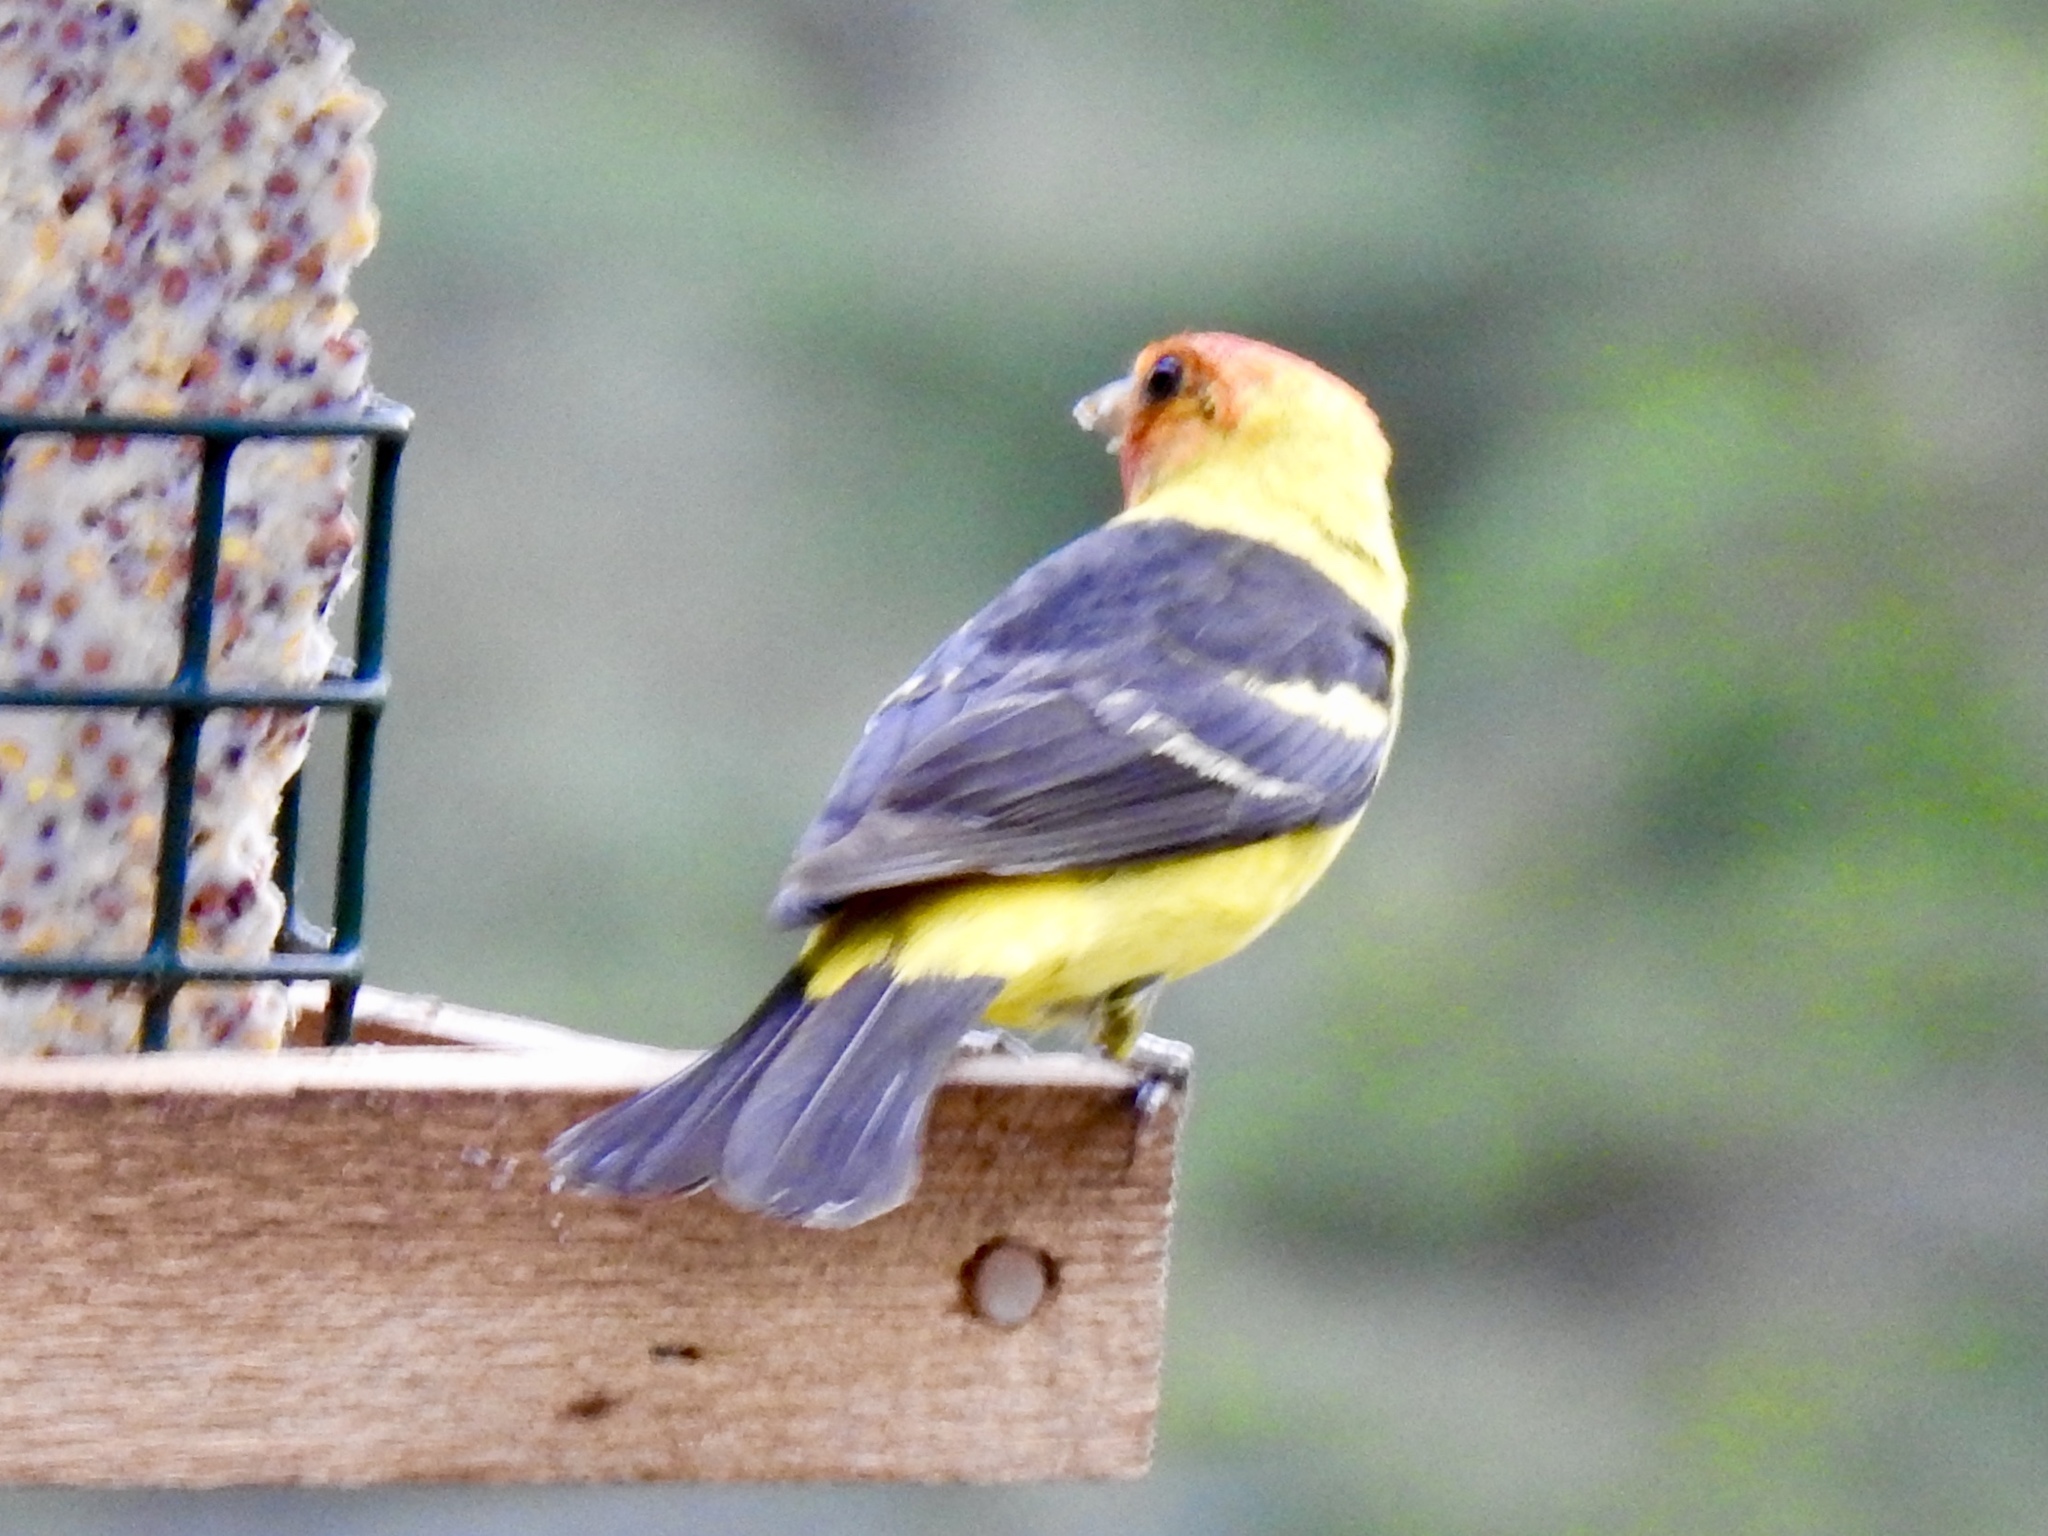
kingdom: Animalia
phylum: Chordata
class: Aves
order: Passeriformes
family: Cardinalidae
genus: Piranga
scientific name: Piranga ludoviciana
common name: Western tanager
